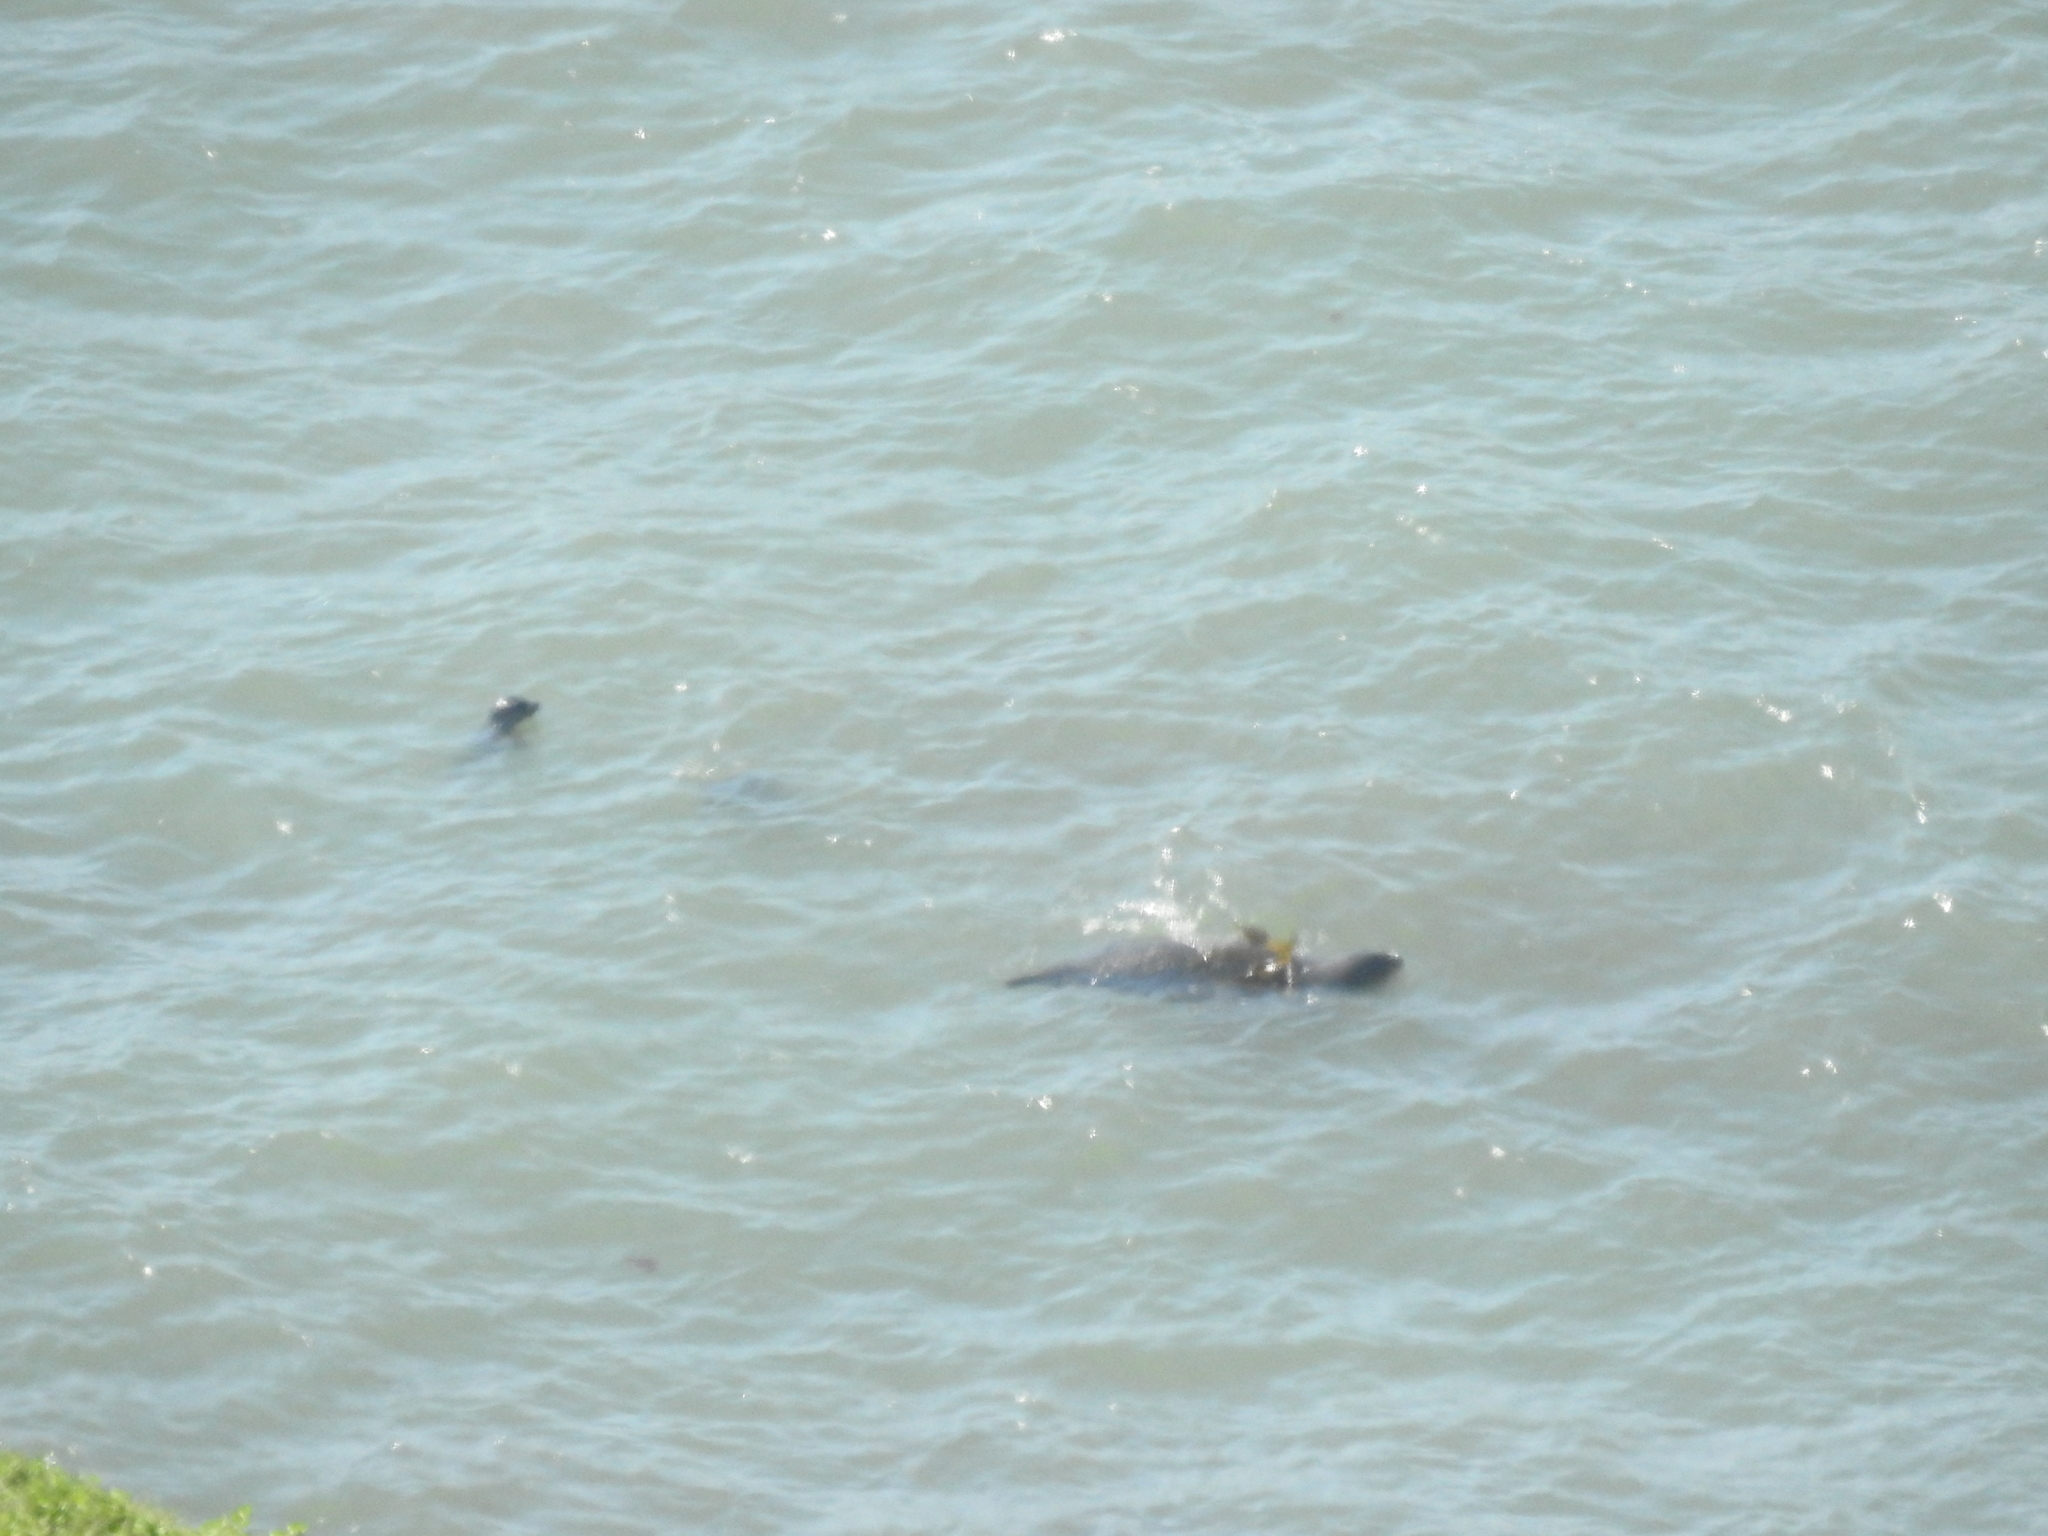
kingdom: Animalia
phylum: Chordata
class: Mammalia
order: Carnivora
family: Otariidae
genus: Zalophus
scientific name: Zalophus californianus
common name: California sea lion
